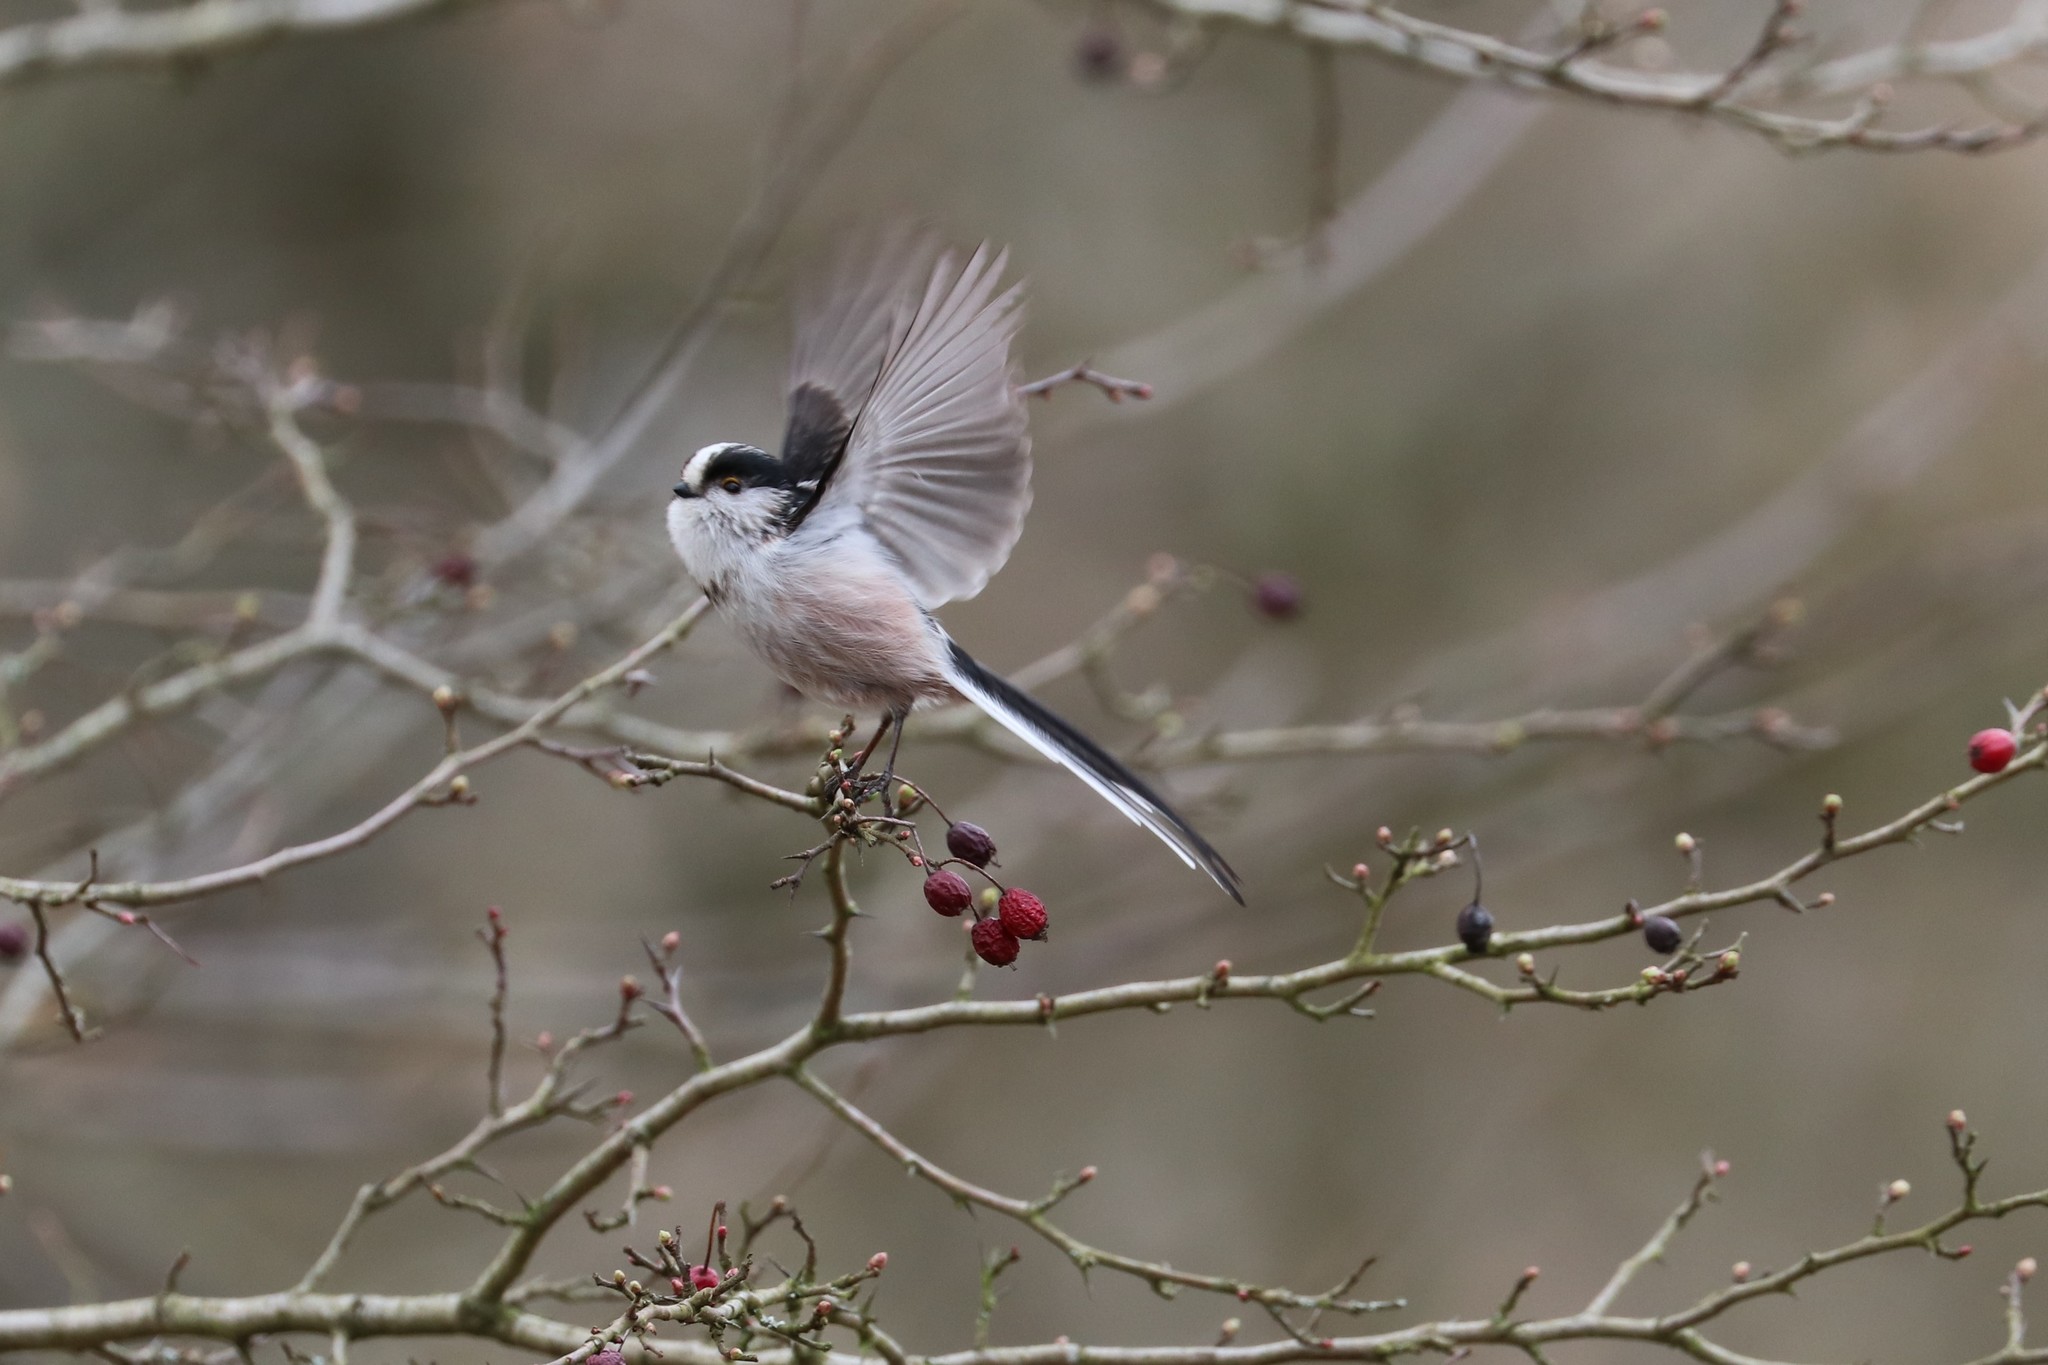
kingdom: Animalia
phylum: Chordata
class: Aves
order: Passeriformes
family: Aegithalidae
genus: Aegithalos
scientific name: Aegithalos caudatus
